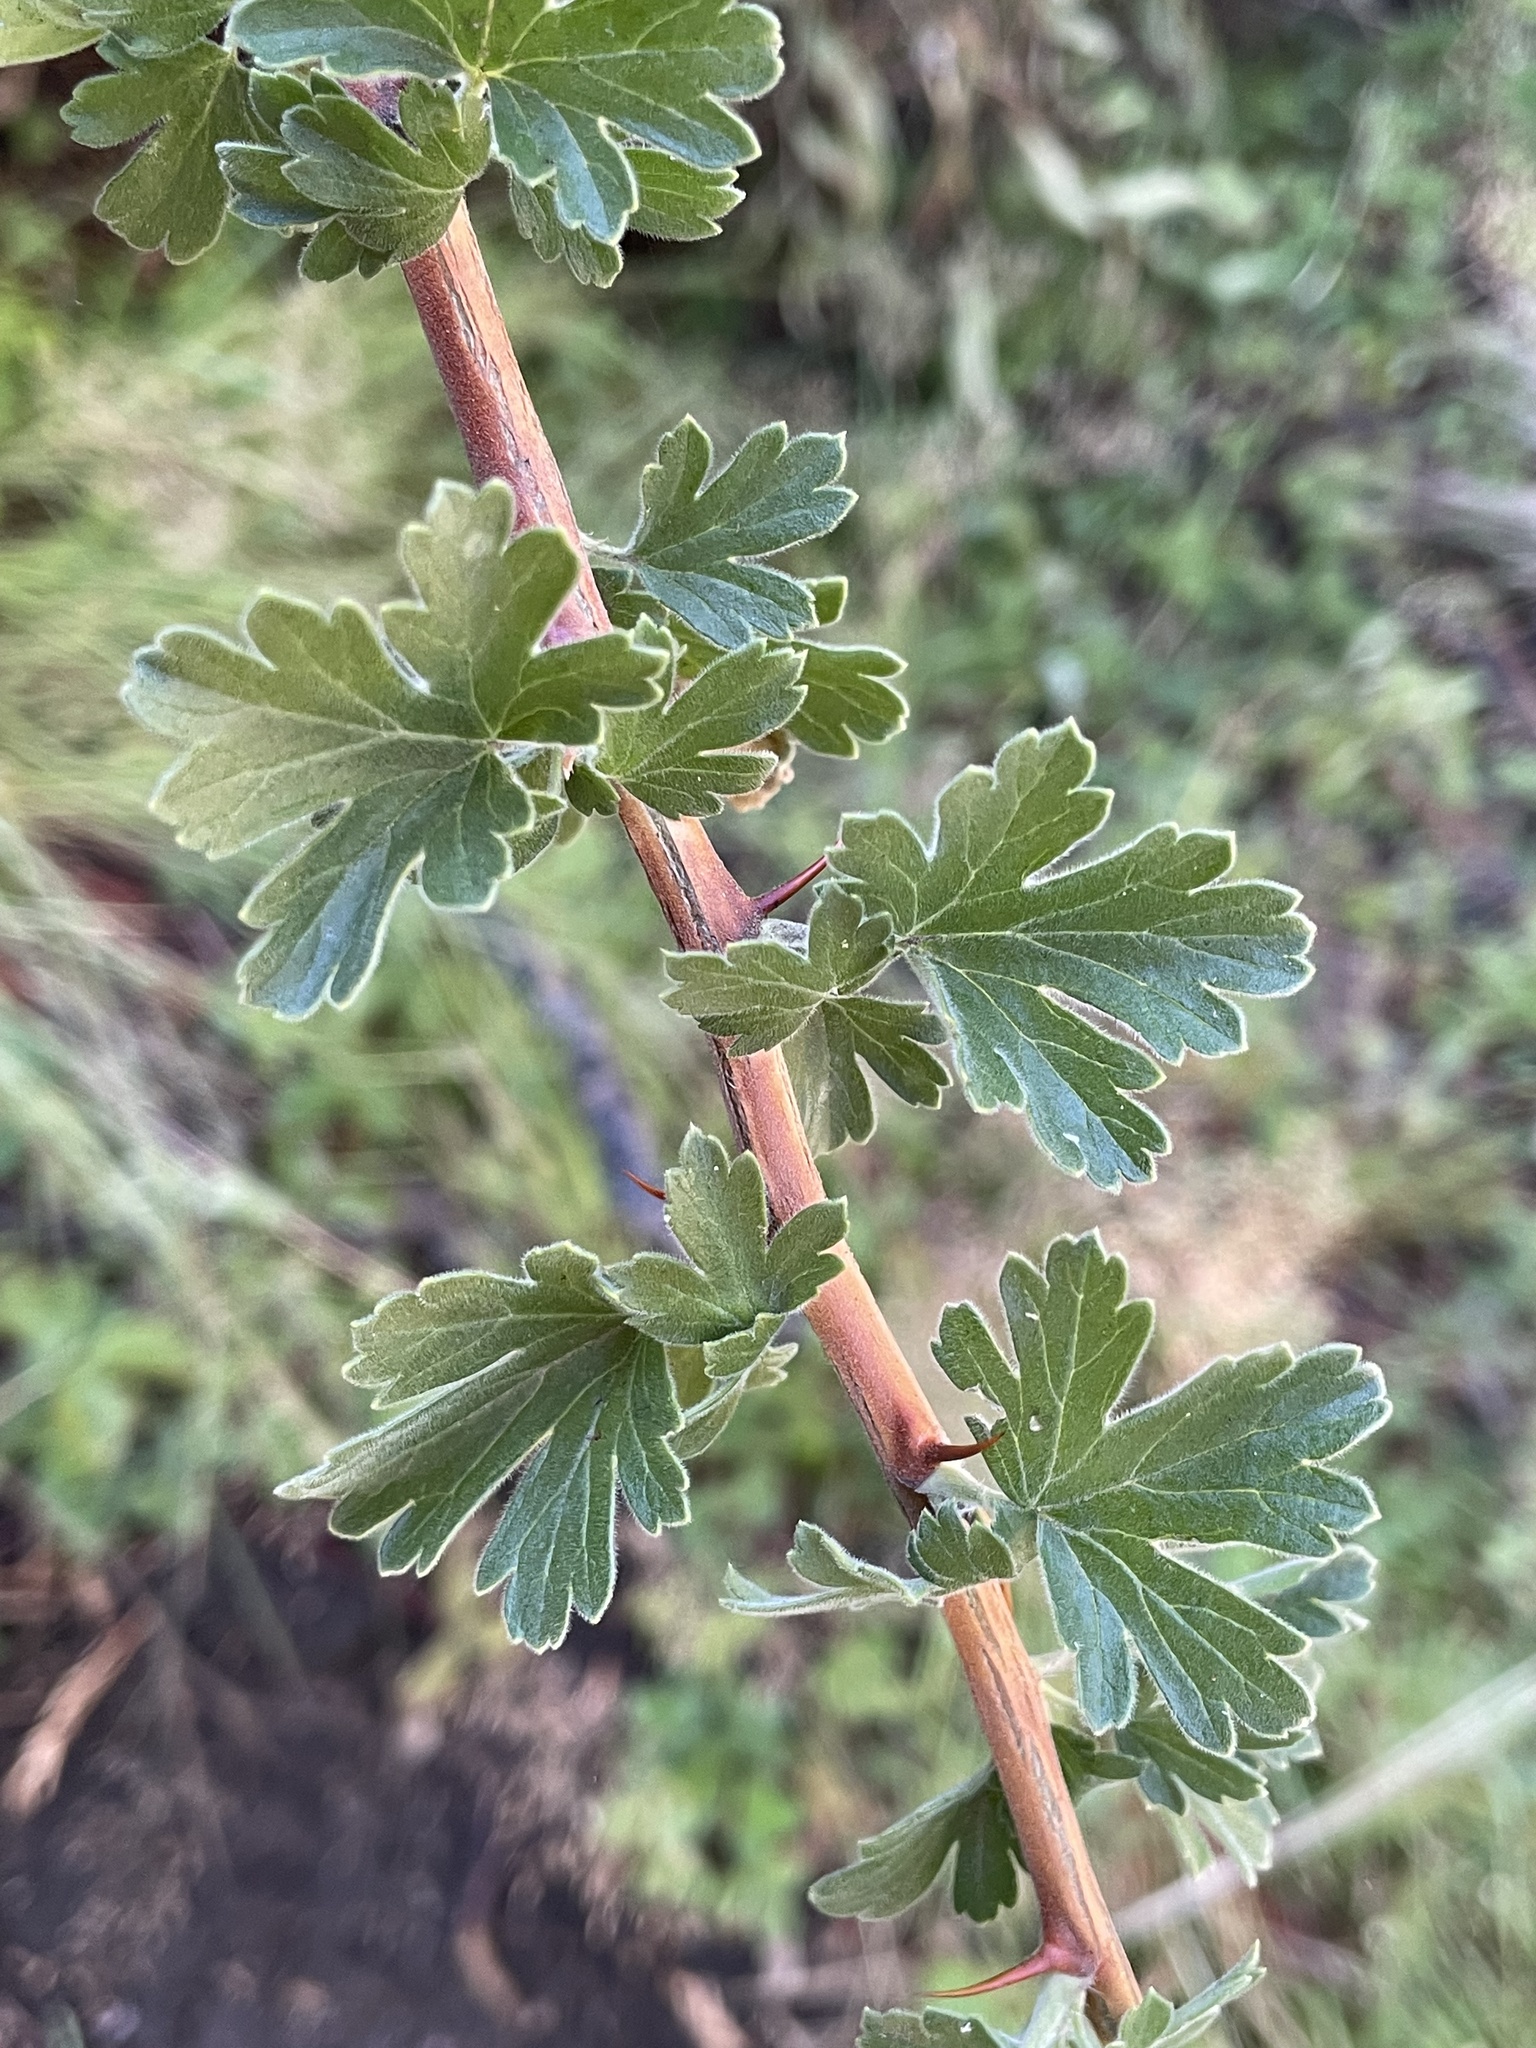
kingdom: Plantae
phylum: Tracheophyta
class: Magnoliopsida
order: Saxifragales
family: Grossulariaceae
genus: Ribes
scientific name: Ribes roezlii
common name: Sierra gooseberry
